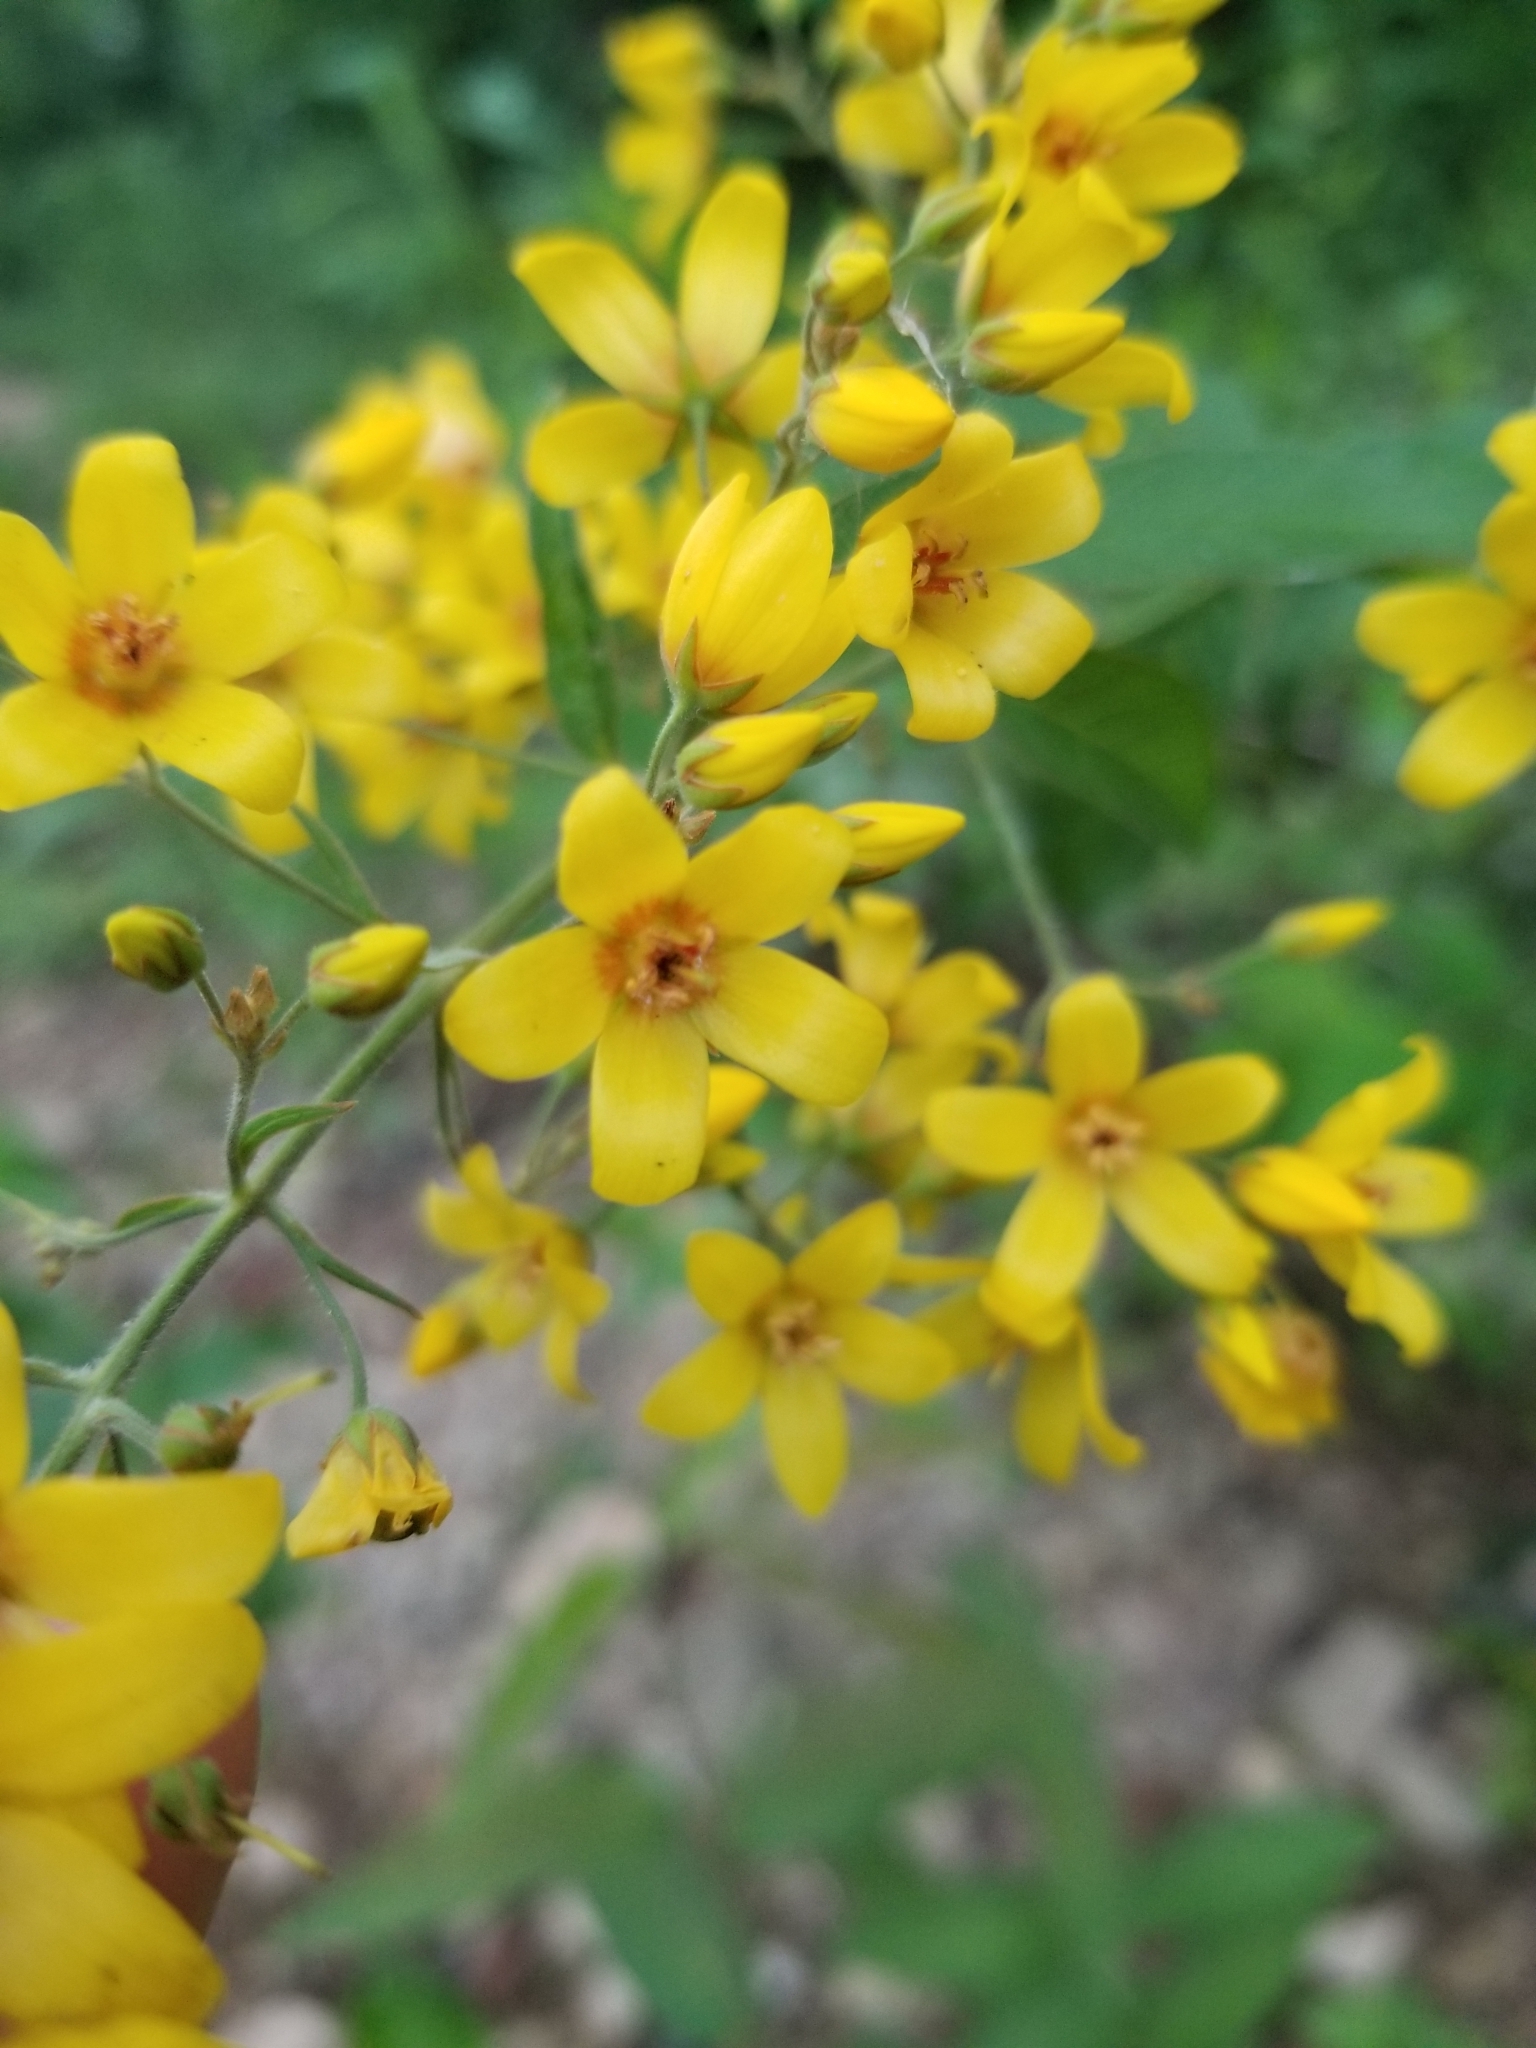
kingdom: Plantae
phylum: Tracheophyta
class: Magnoliopsida
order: Ericales
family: Primulaceae
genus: Lysimachia
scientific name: Lysimachia vulgaris
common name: Yellow loosestrife
